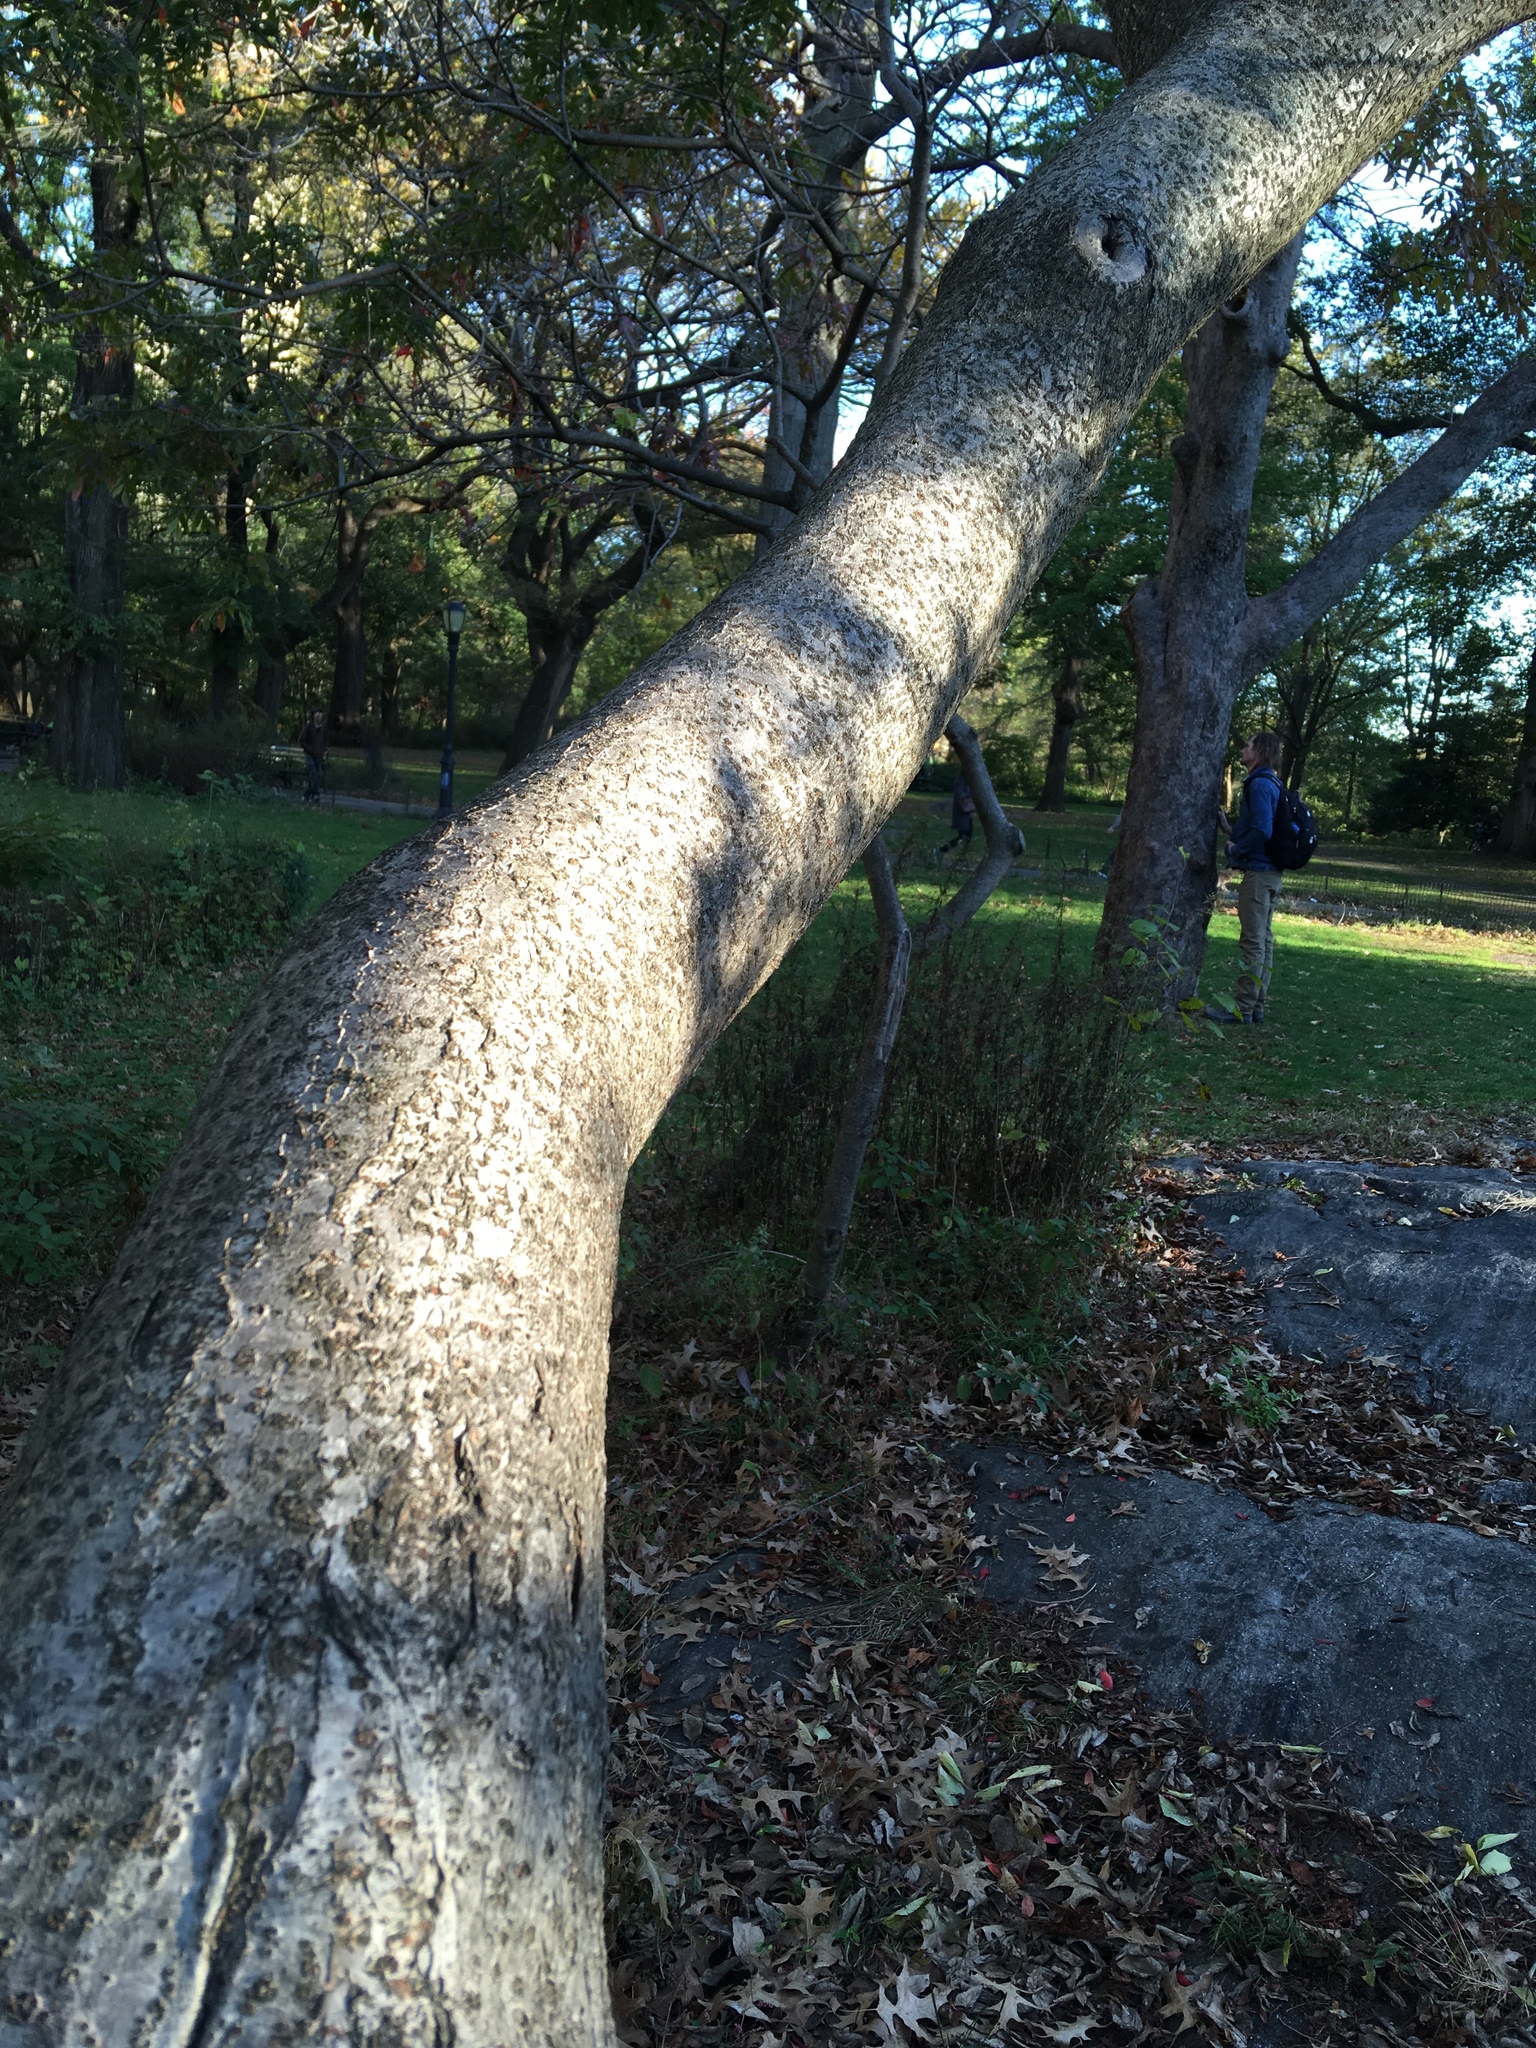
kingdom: Plantae
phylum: Tracheophyta
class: Magnoliopsida
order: Sapindales
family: Anacardiaceae
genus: Rhus
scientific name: Rhus copallina
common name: Shining sumac
